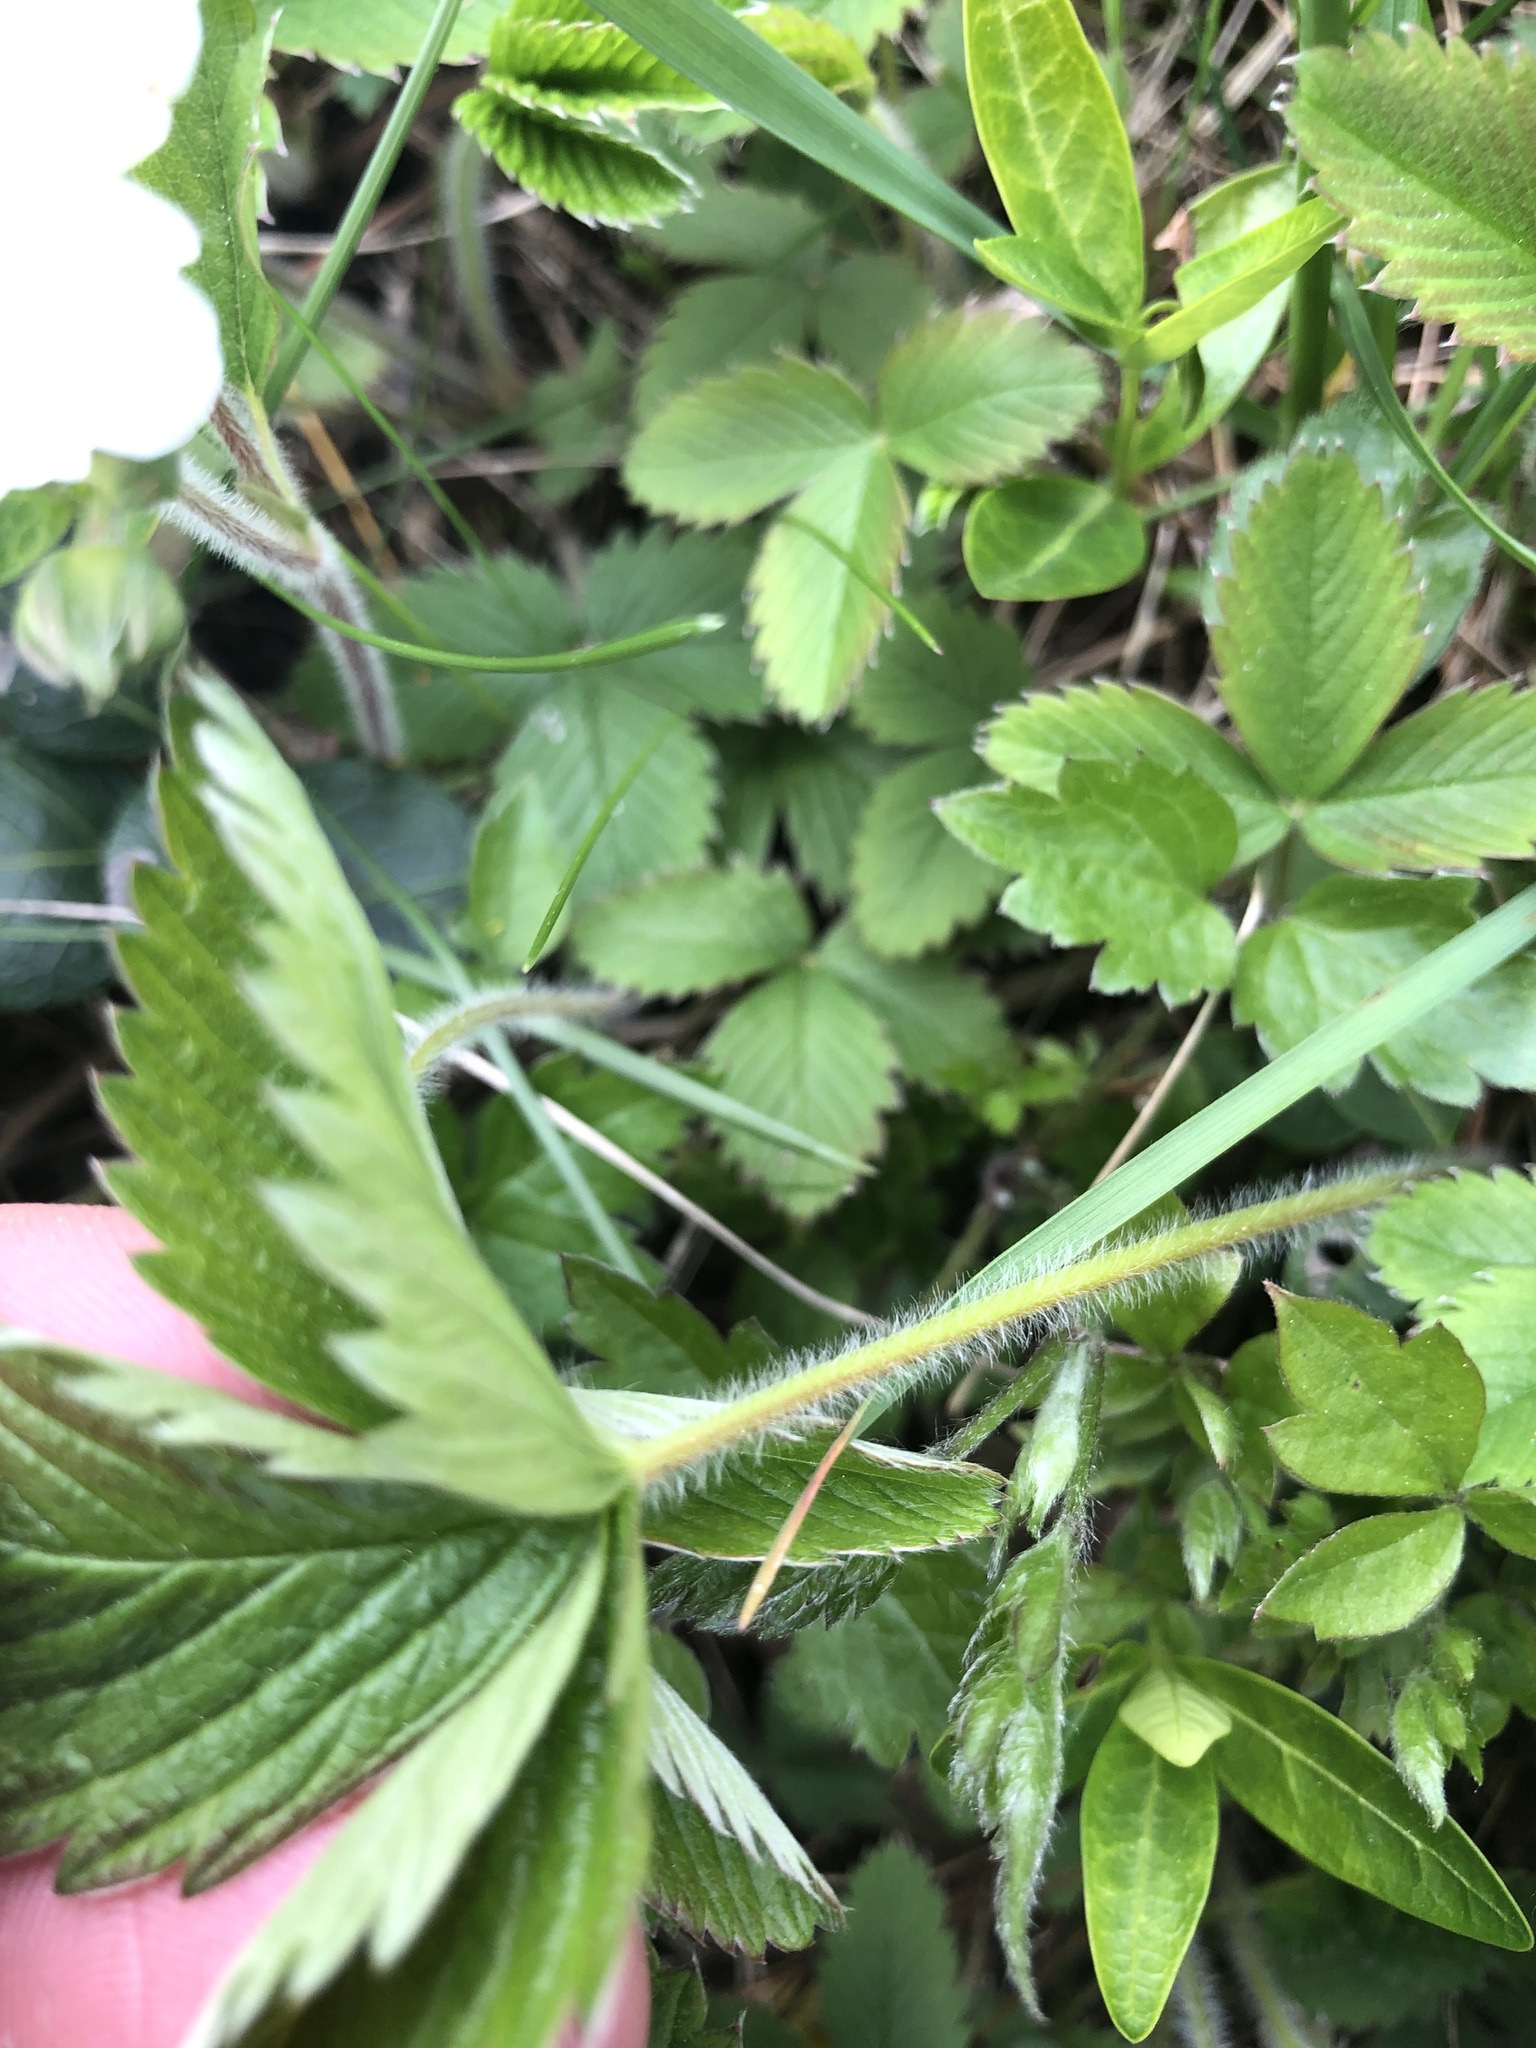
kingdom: Plantae
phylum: Tracheophyta
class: Magnoliopsida
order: Rosales
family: Rosaceae
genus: Fragaria
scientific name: Fragaria viridis
